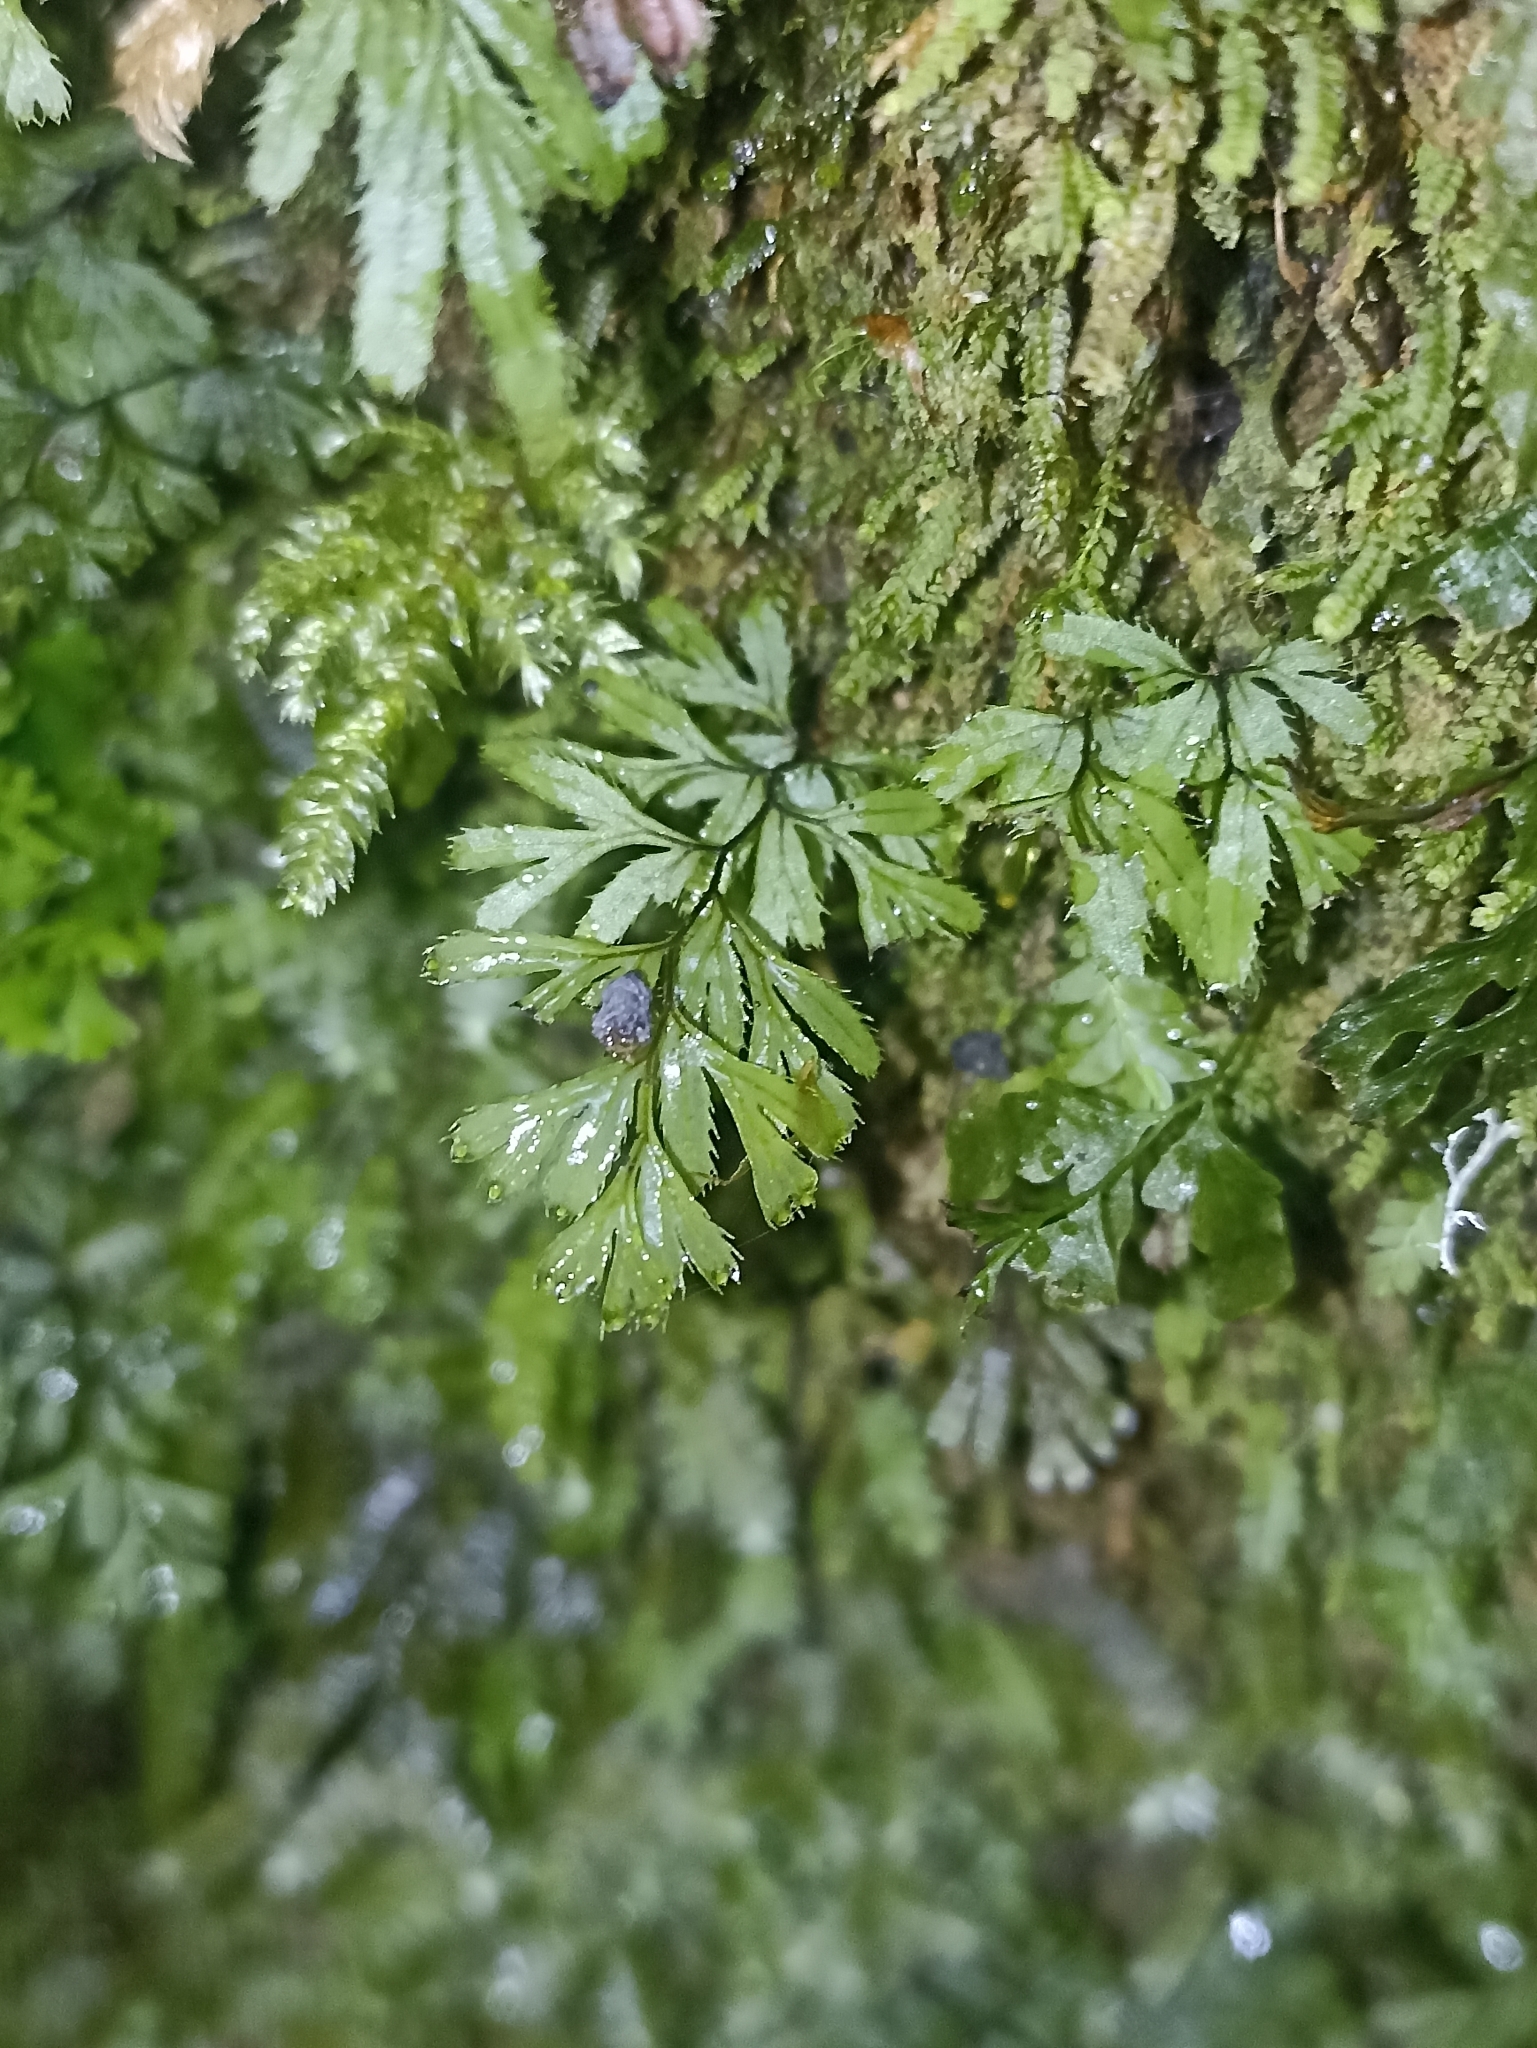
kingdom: Plantae
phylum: Tracheophyta
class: Polypodiopsida
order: Hymenophyllales
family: Hymenophyllaceae
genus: Hymenophyllum
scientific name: Hymenophyllum revolutum
